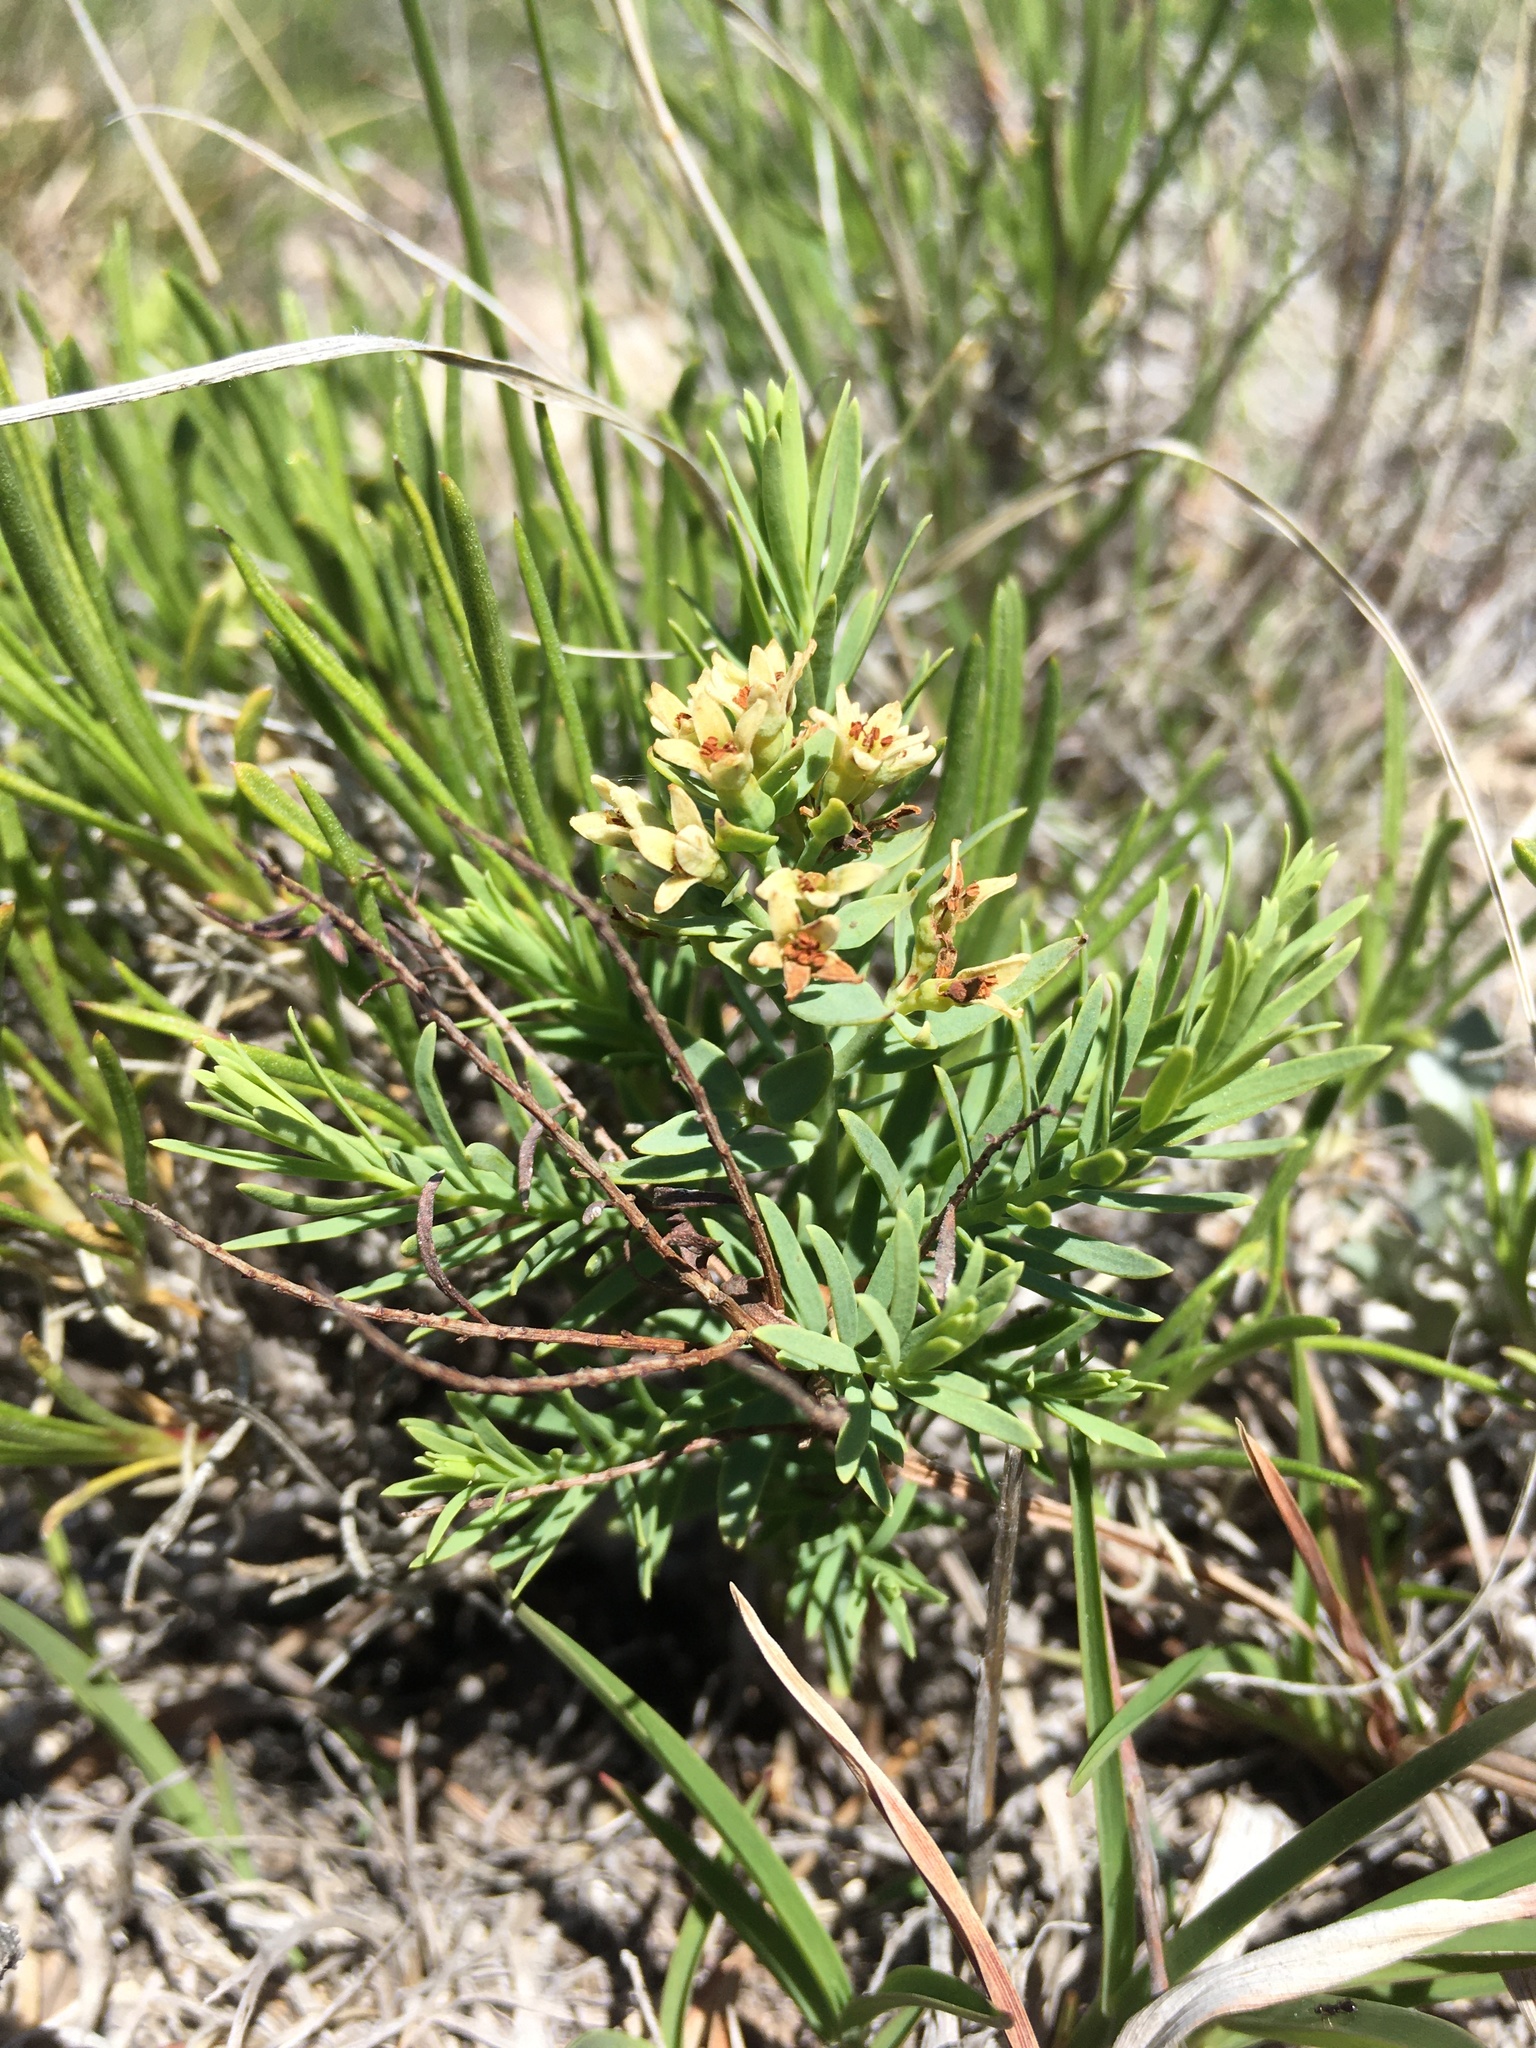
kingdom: Plantae
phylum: Tracheophyta
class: Magnoliopsida
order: Santalales
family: Comandraceae
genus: Comandra
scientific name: Comandra umbellata
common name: Bastard toadflax
